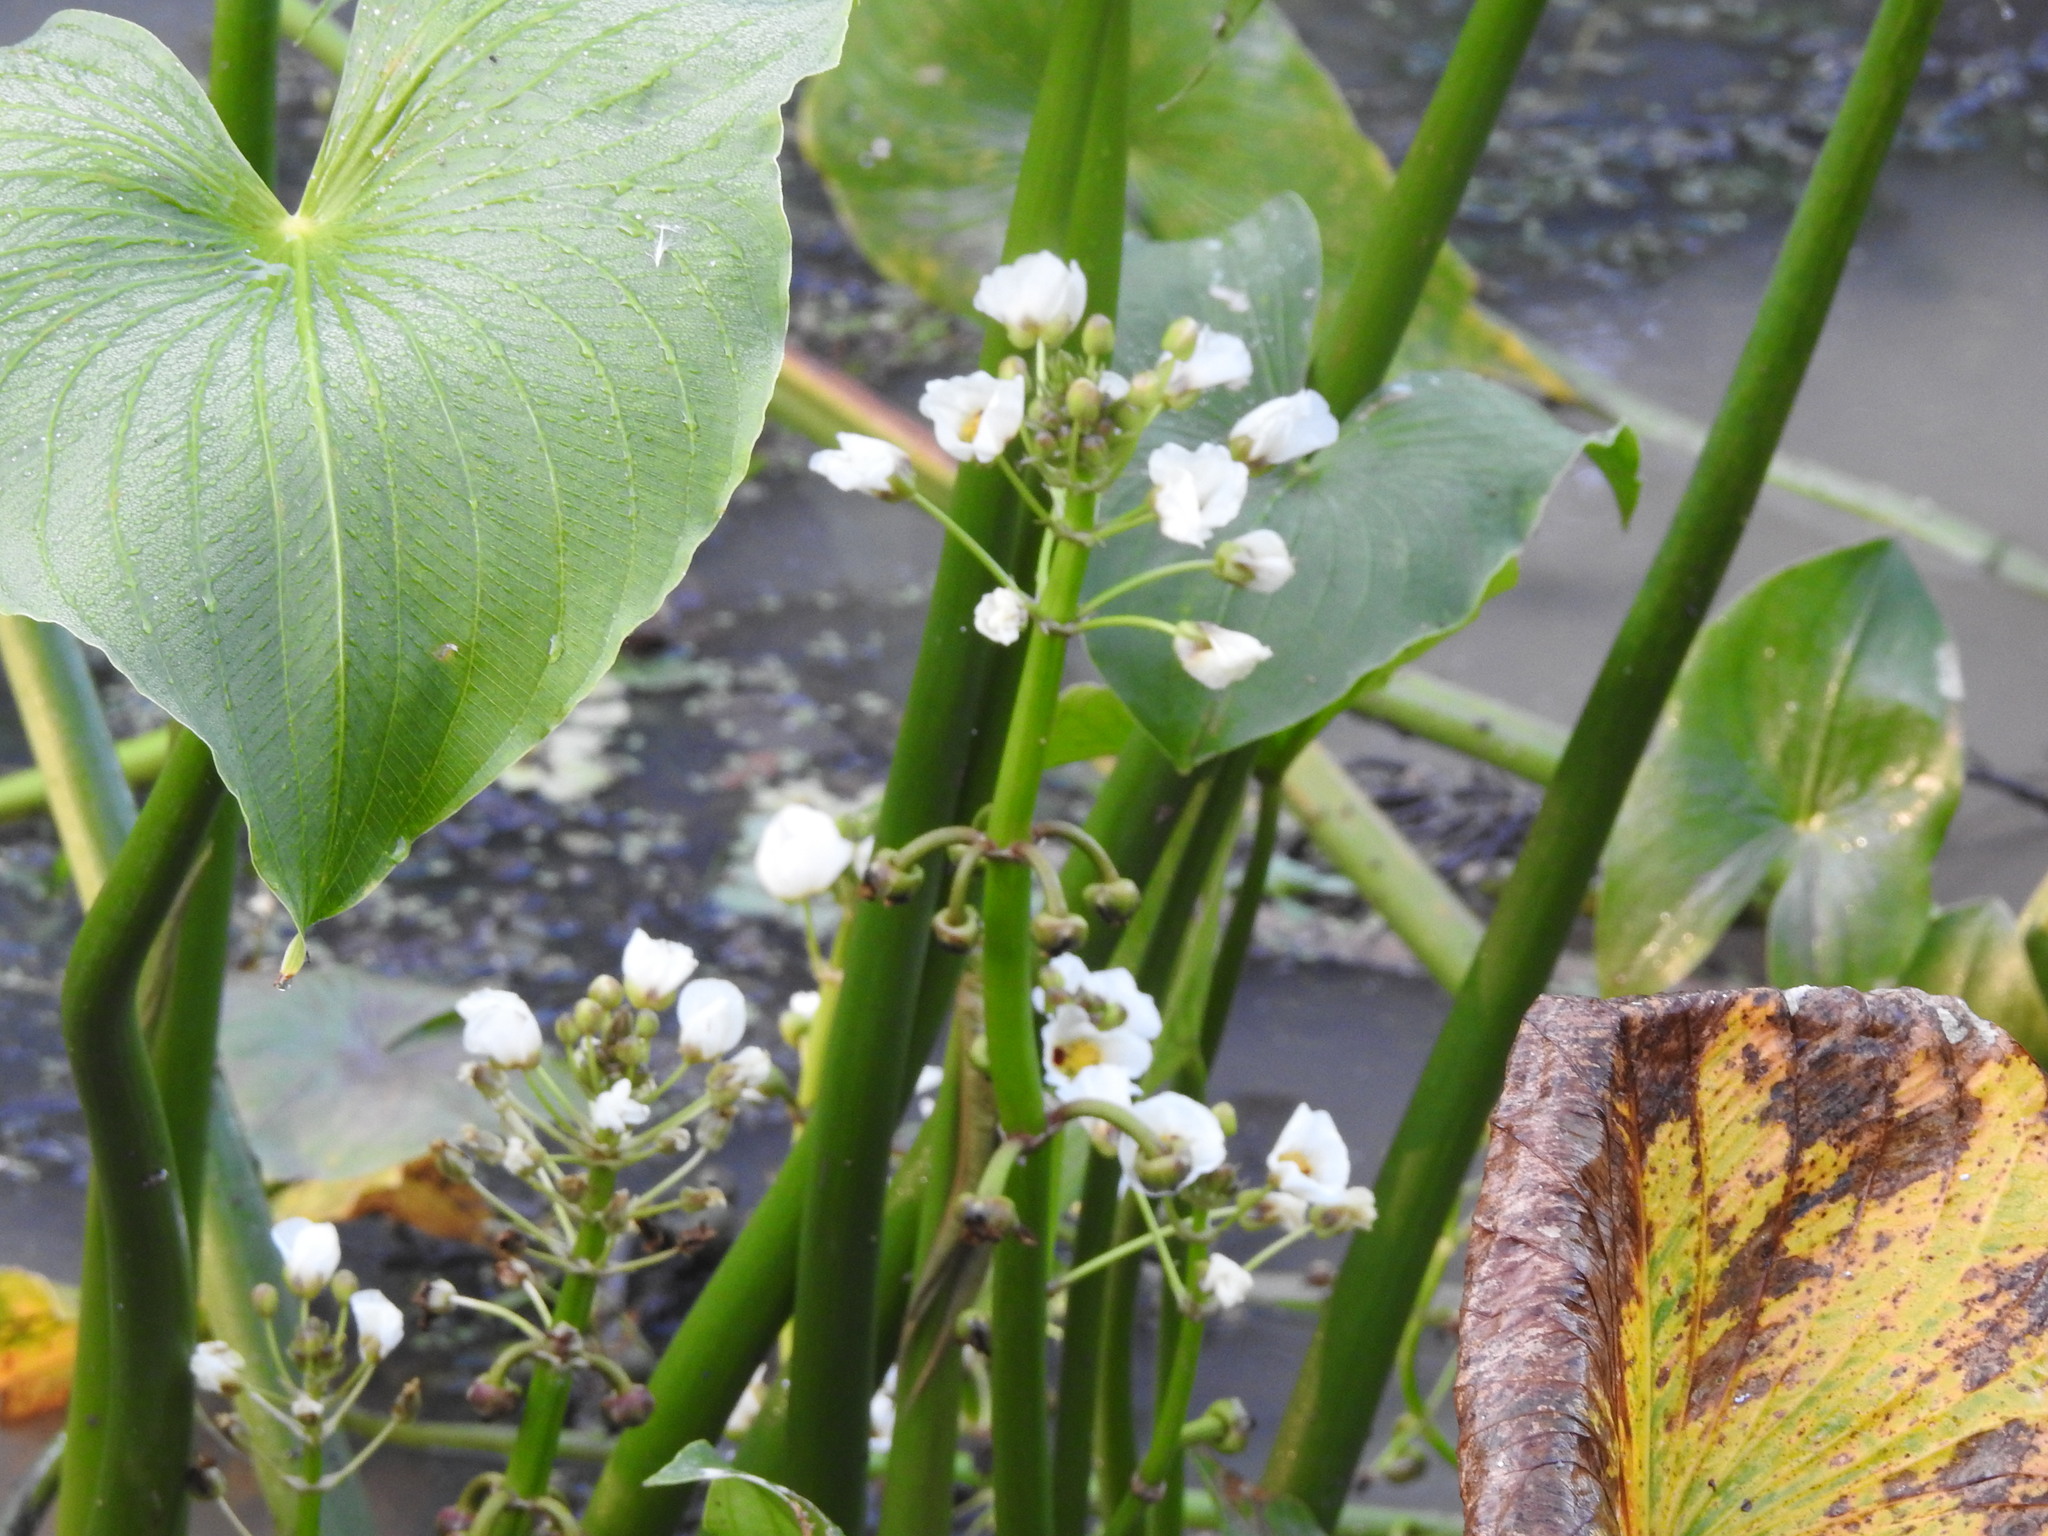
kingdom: Plantae
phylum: Tracheophyta
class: Liliopsida
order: Alismatales
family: Alismataceae
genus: Sagittaria
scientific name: Sagittaria montevidensis
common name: Giant arrowhead
